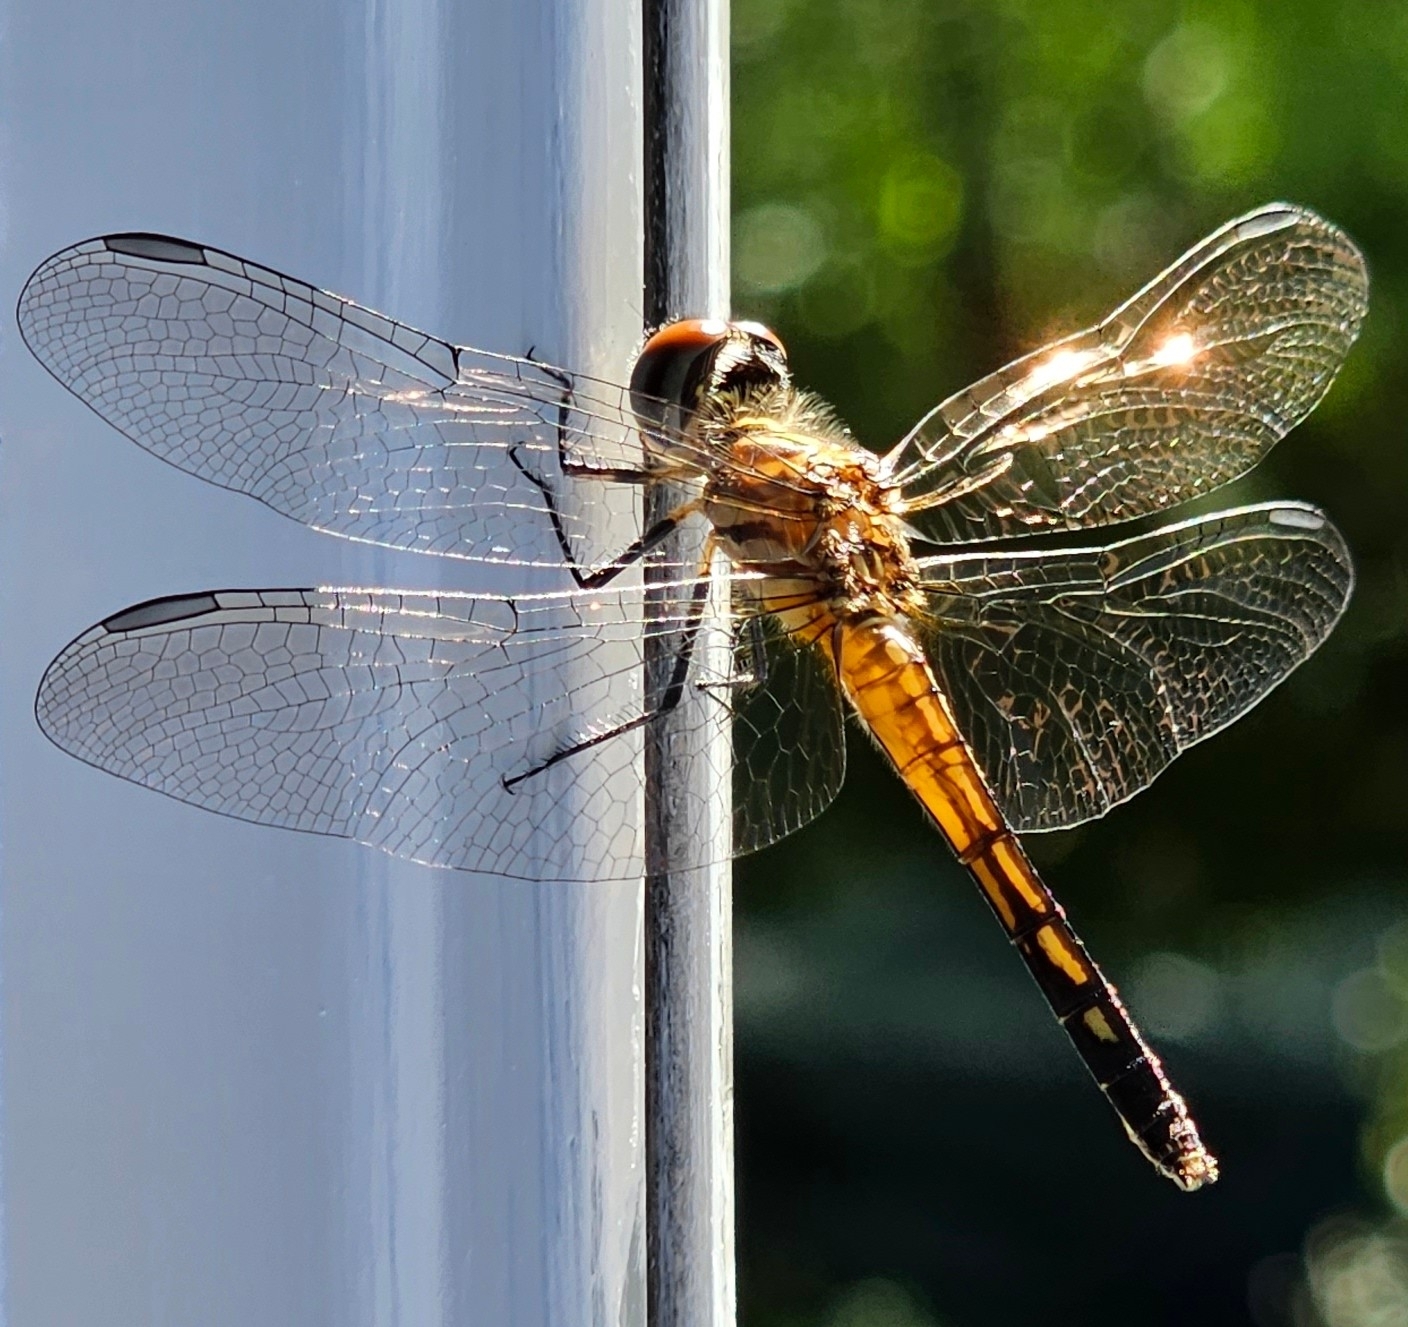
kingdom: Animalia
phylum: Arthropoda
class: Insecta
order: Odonata
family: Libellulidae
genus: Pachydiplax
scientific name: Pachydiplax longipennis
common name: Blue dasher
